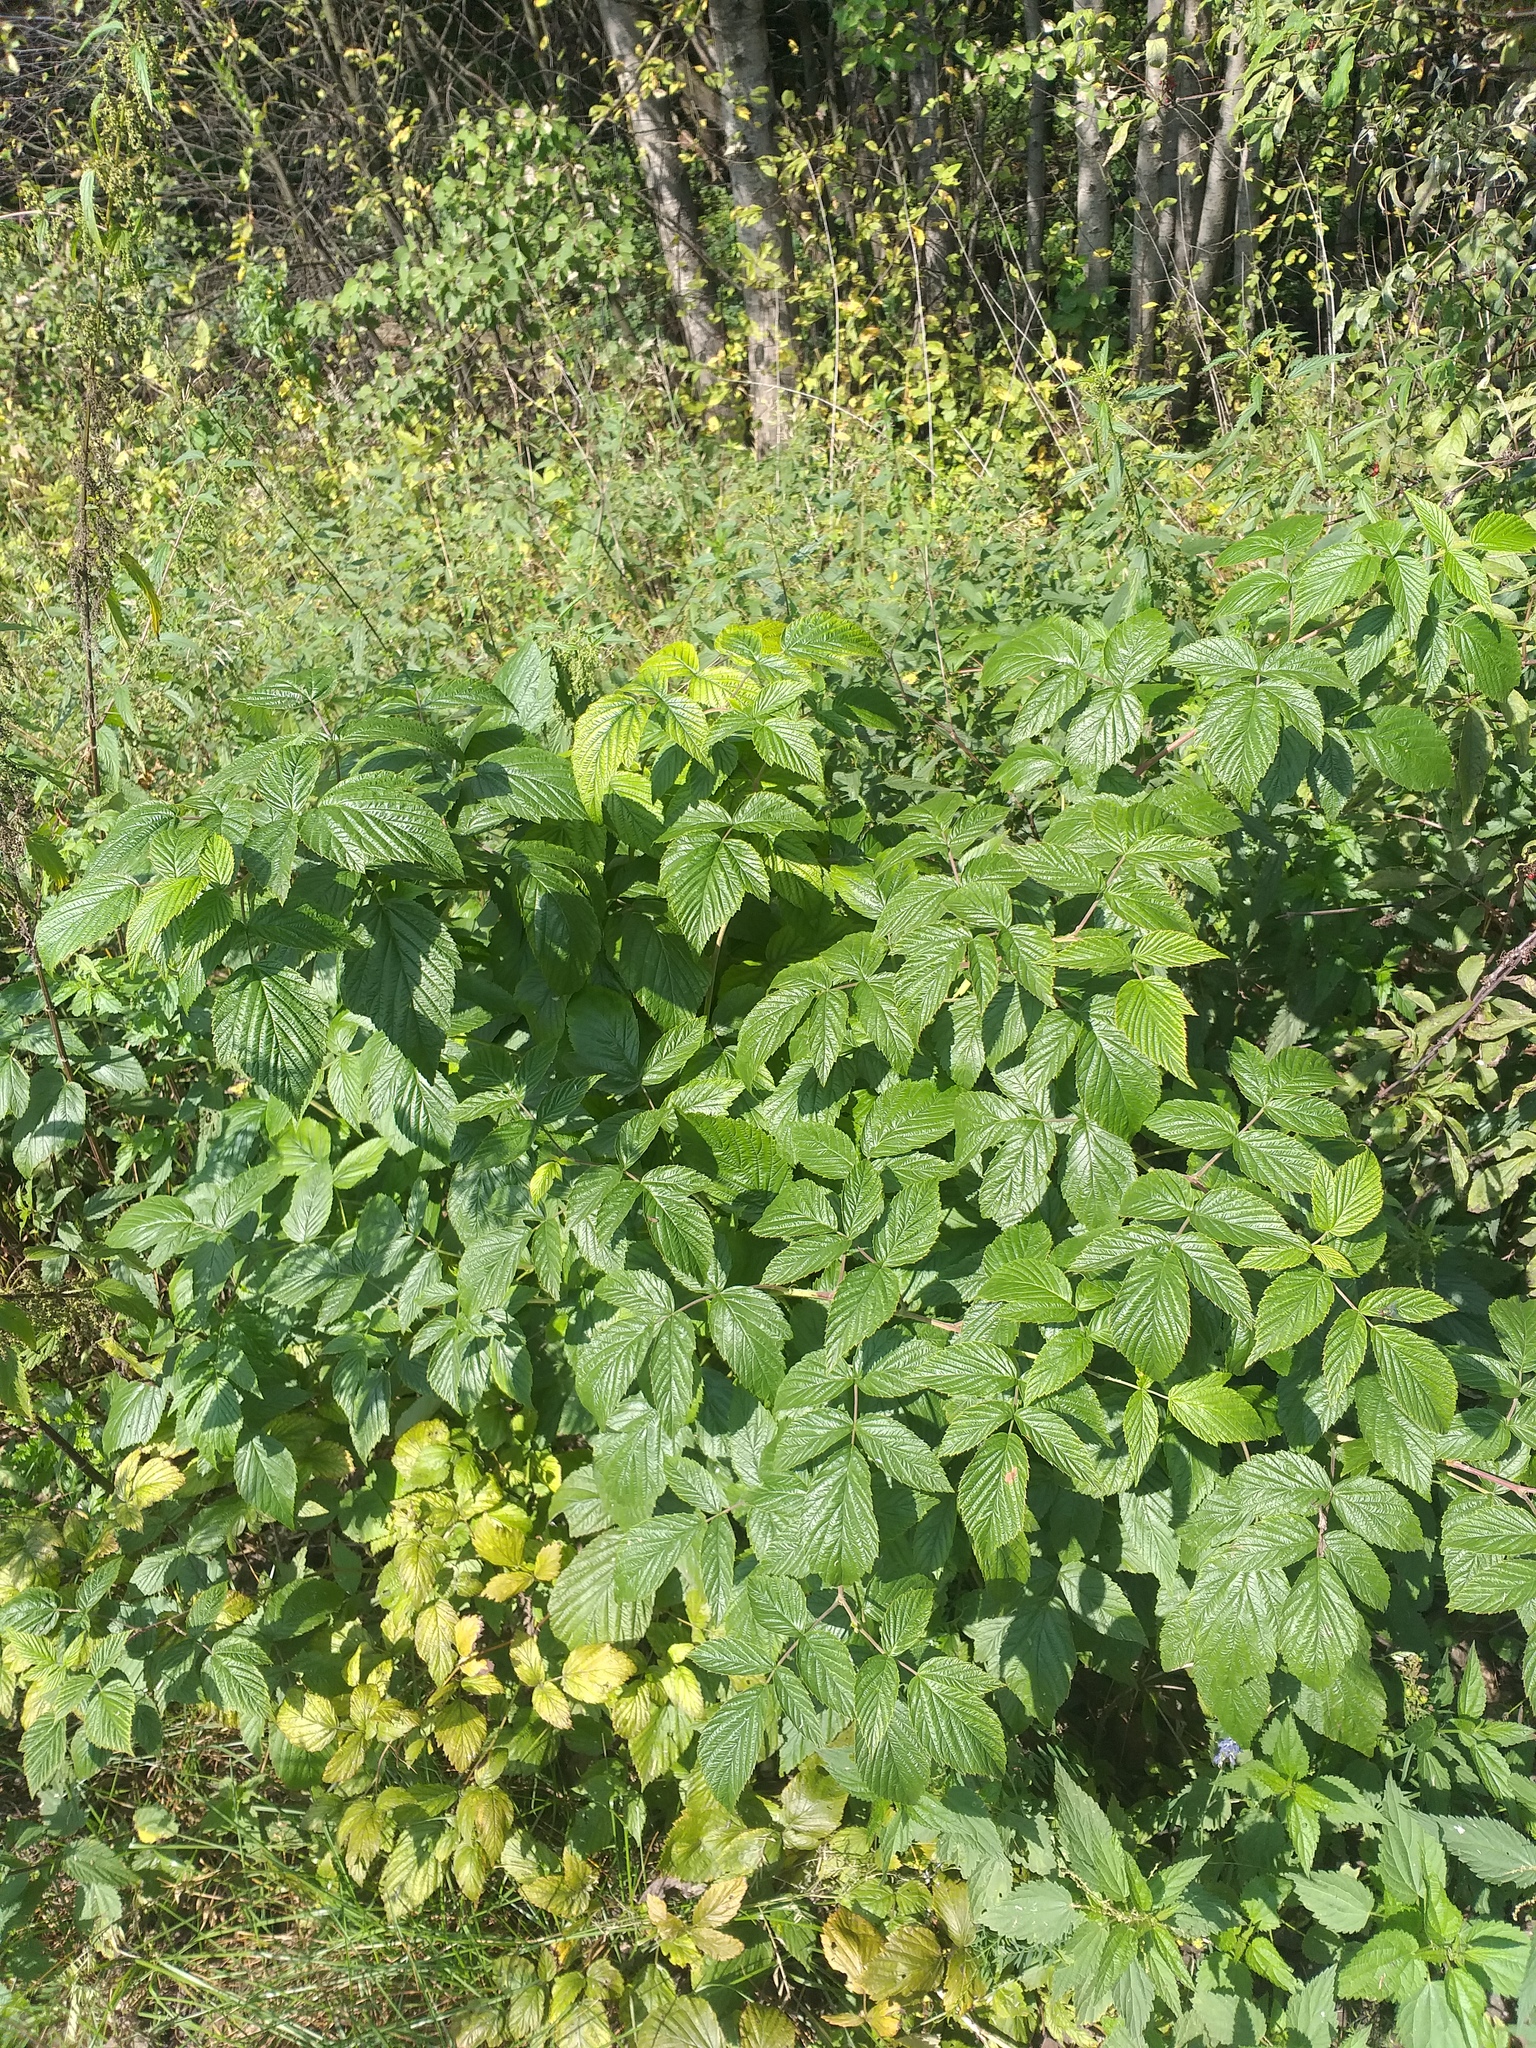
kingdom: Plantae
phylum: Tracheophyta
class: Magnoliopsida
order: Rosales
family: Rosaceae
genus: Rubus
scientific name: Rubus idaeus
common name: Raspberry
